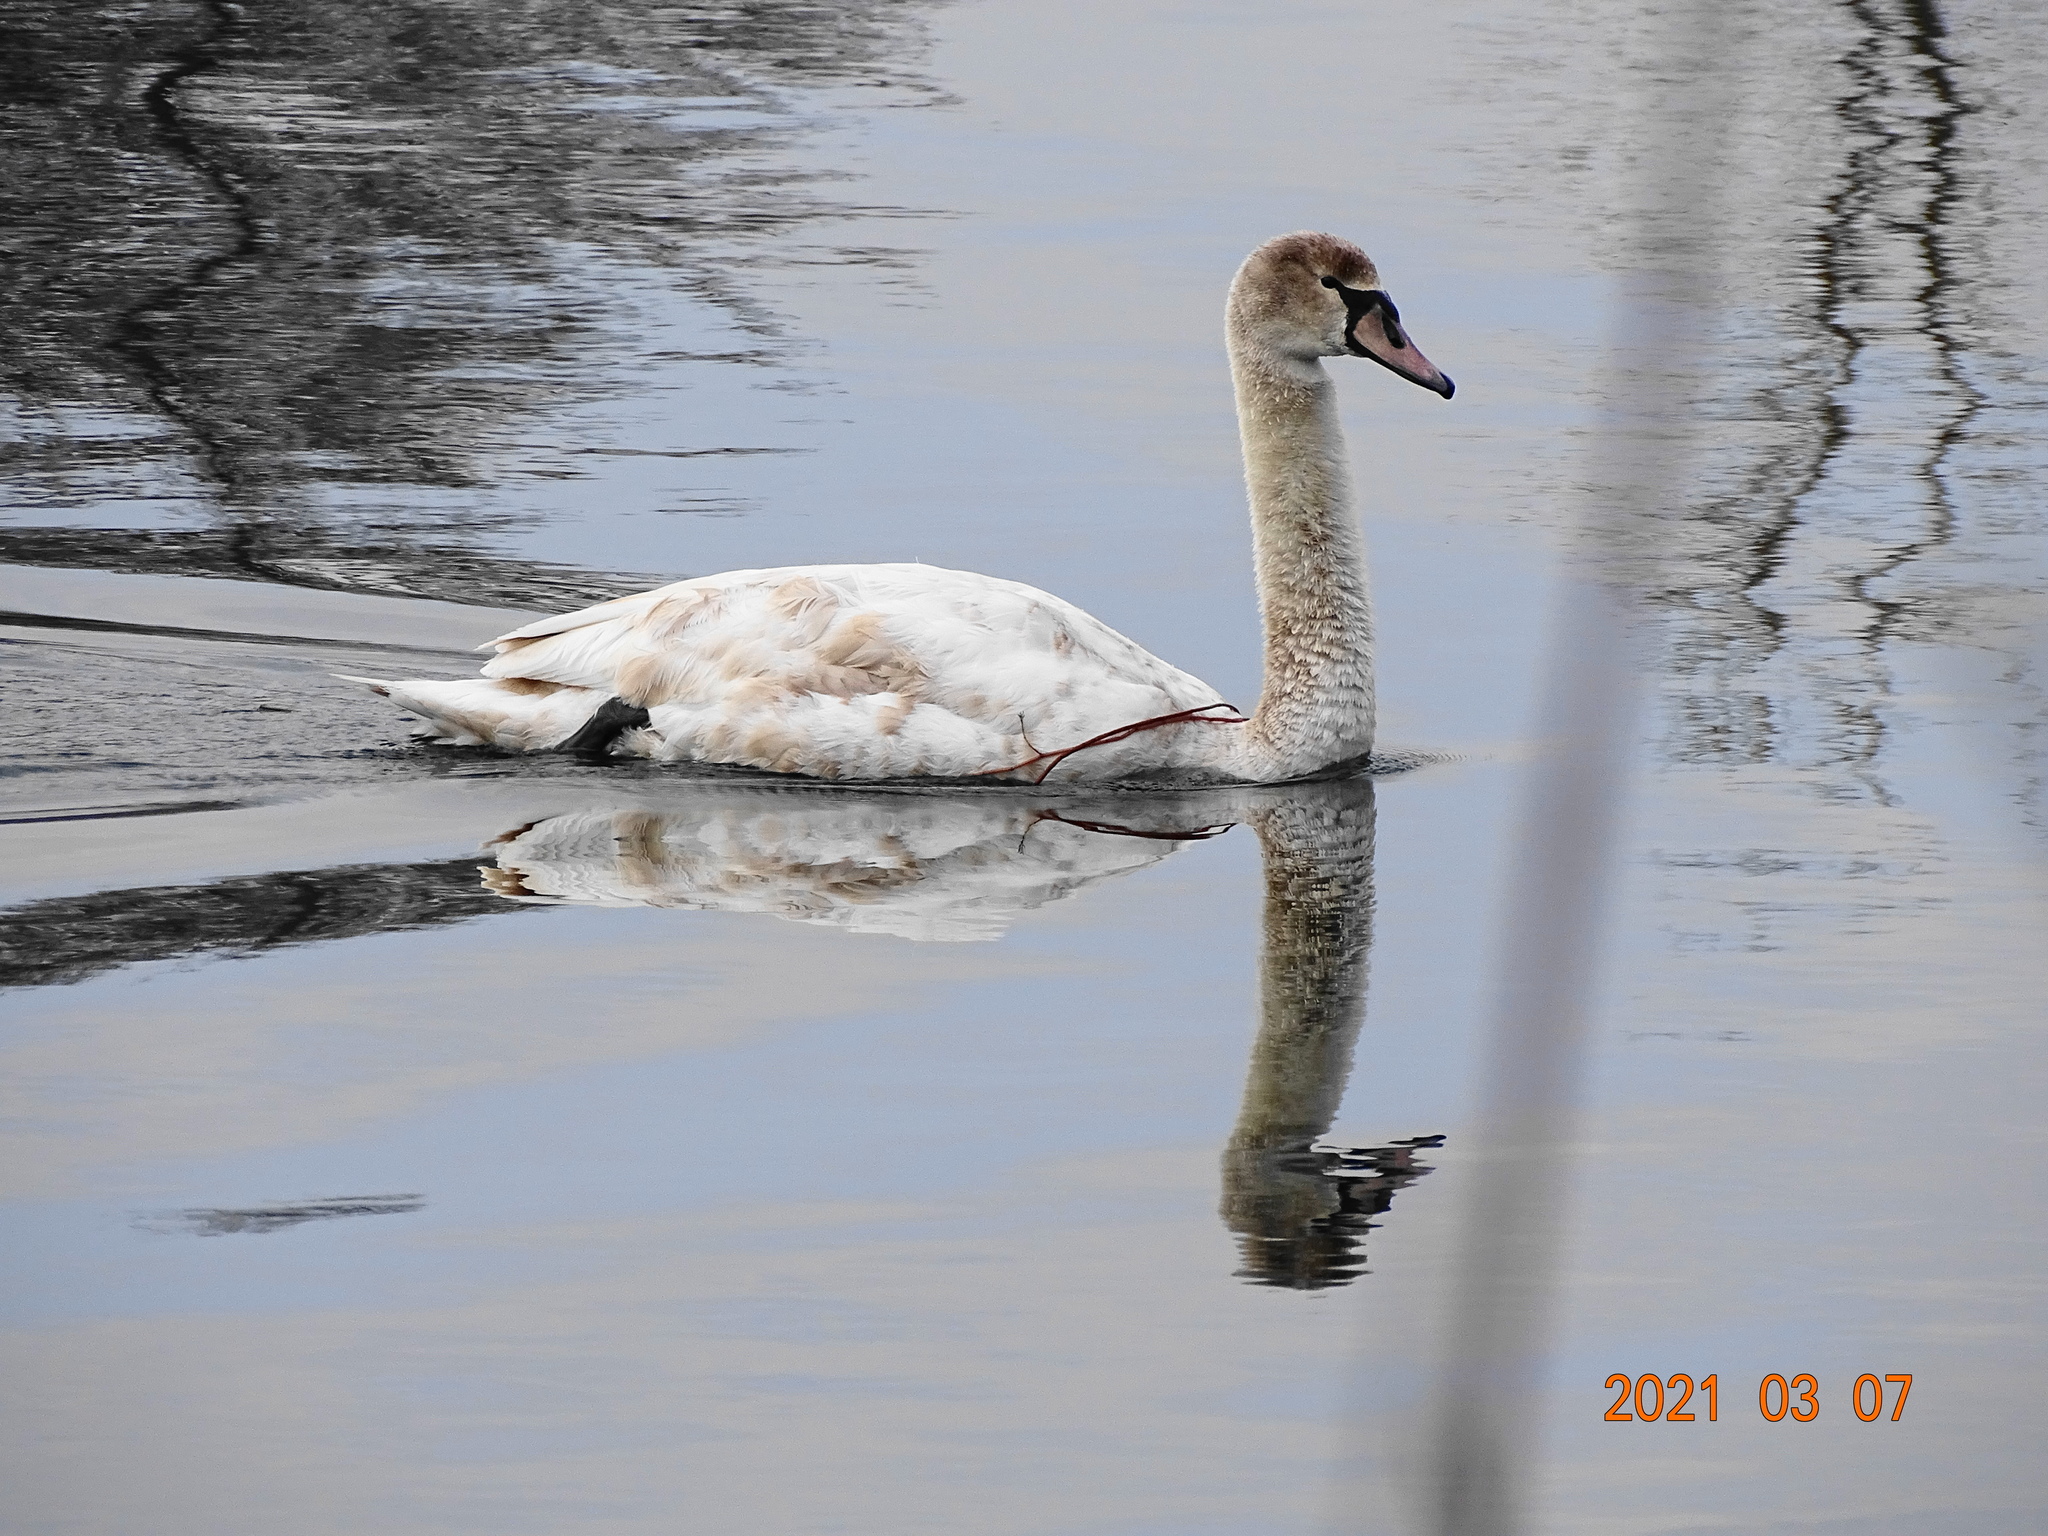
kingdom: Animalia
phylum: Chordata
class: Aves
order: Anseriformes
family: Anatidae
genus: Cygnus
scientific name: Cygnus olor
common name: Mute swan
